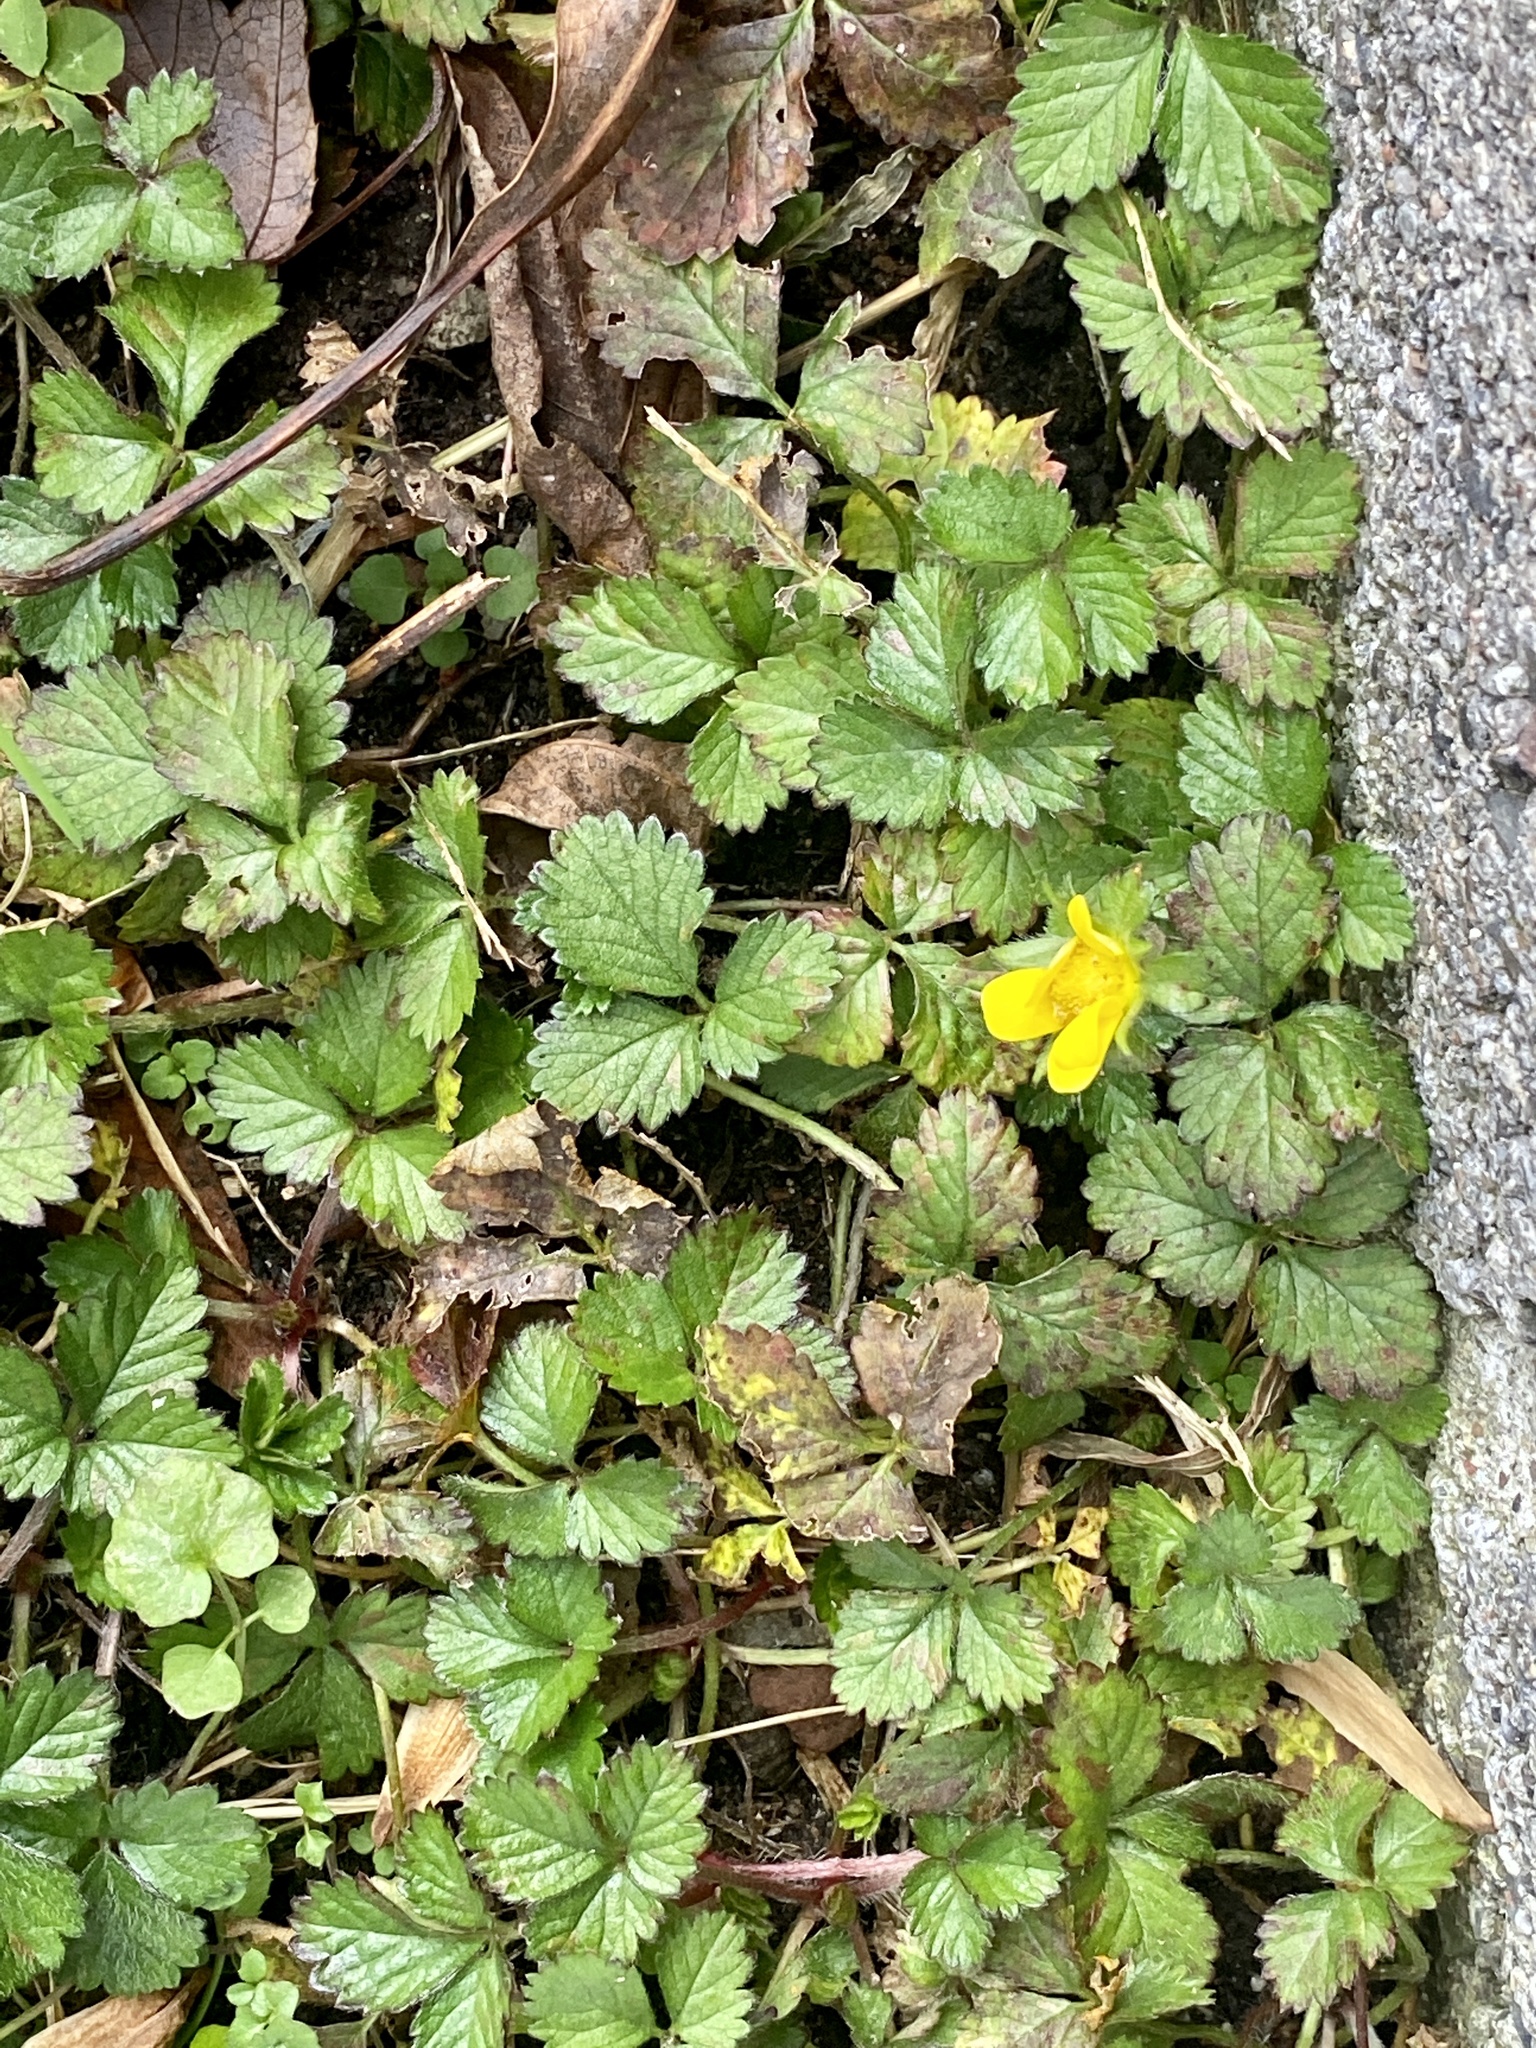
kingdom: Plantae
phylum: Tracheophyta
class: Magnoliopsida
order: Rosales
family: Rosaceae
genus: Potentilla
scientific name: Potentilla indica
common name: Yellow-flowered strawberry
